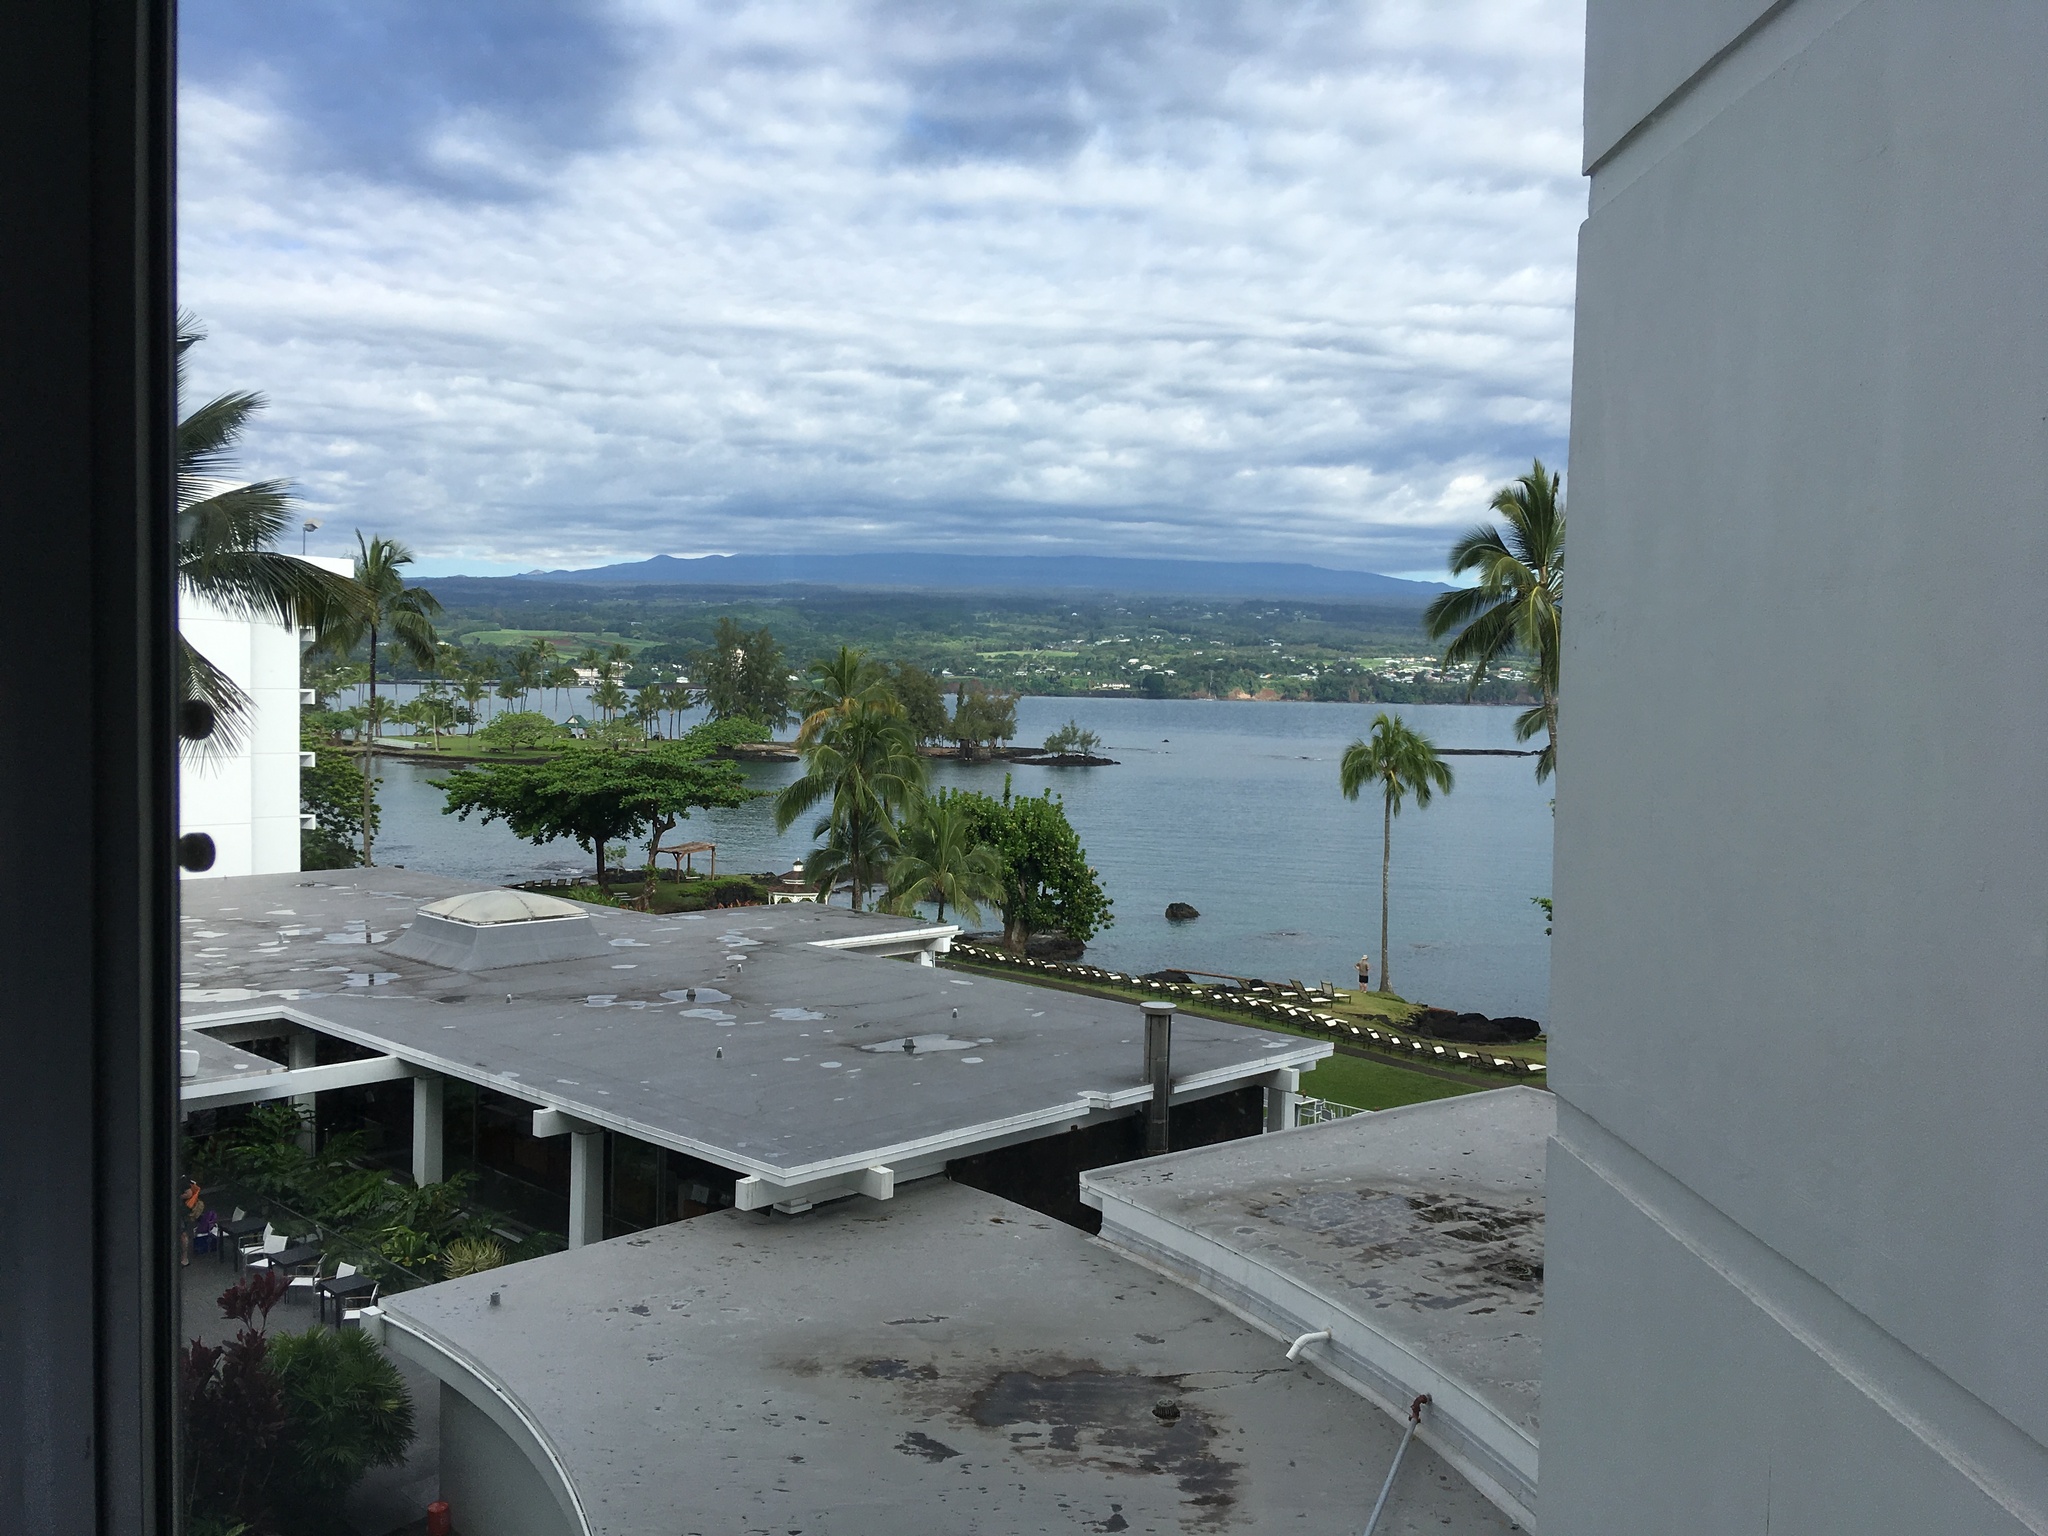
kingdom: Plantae
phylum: Tracheophyta
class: Magnoliopsida
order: Fagales
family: Casuarinaceae
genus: Casuarina
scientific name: Casuarina equisetifolia
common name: Beach sheoak
